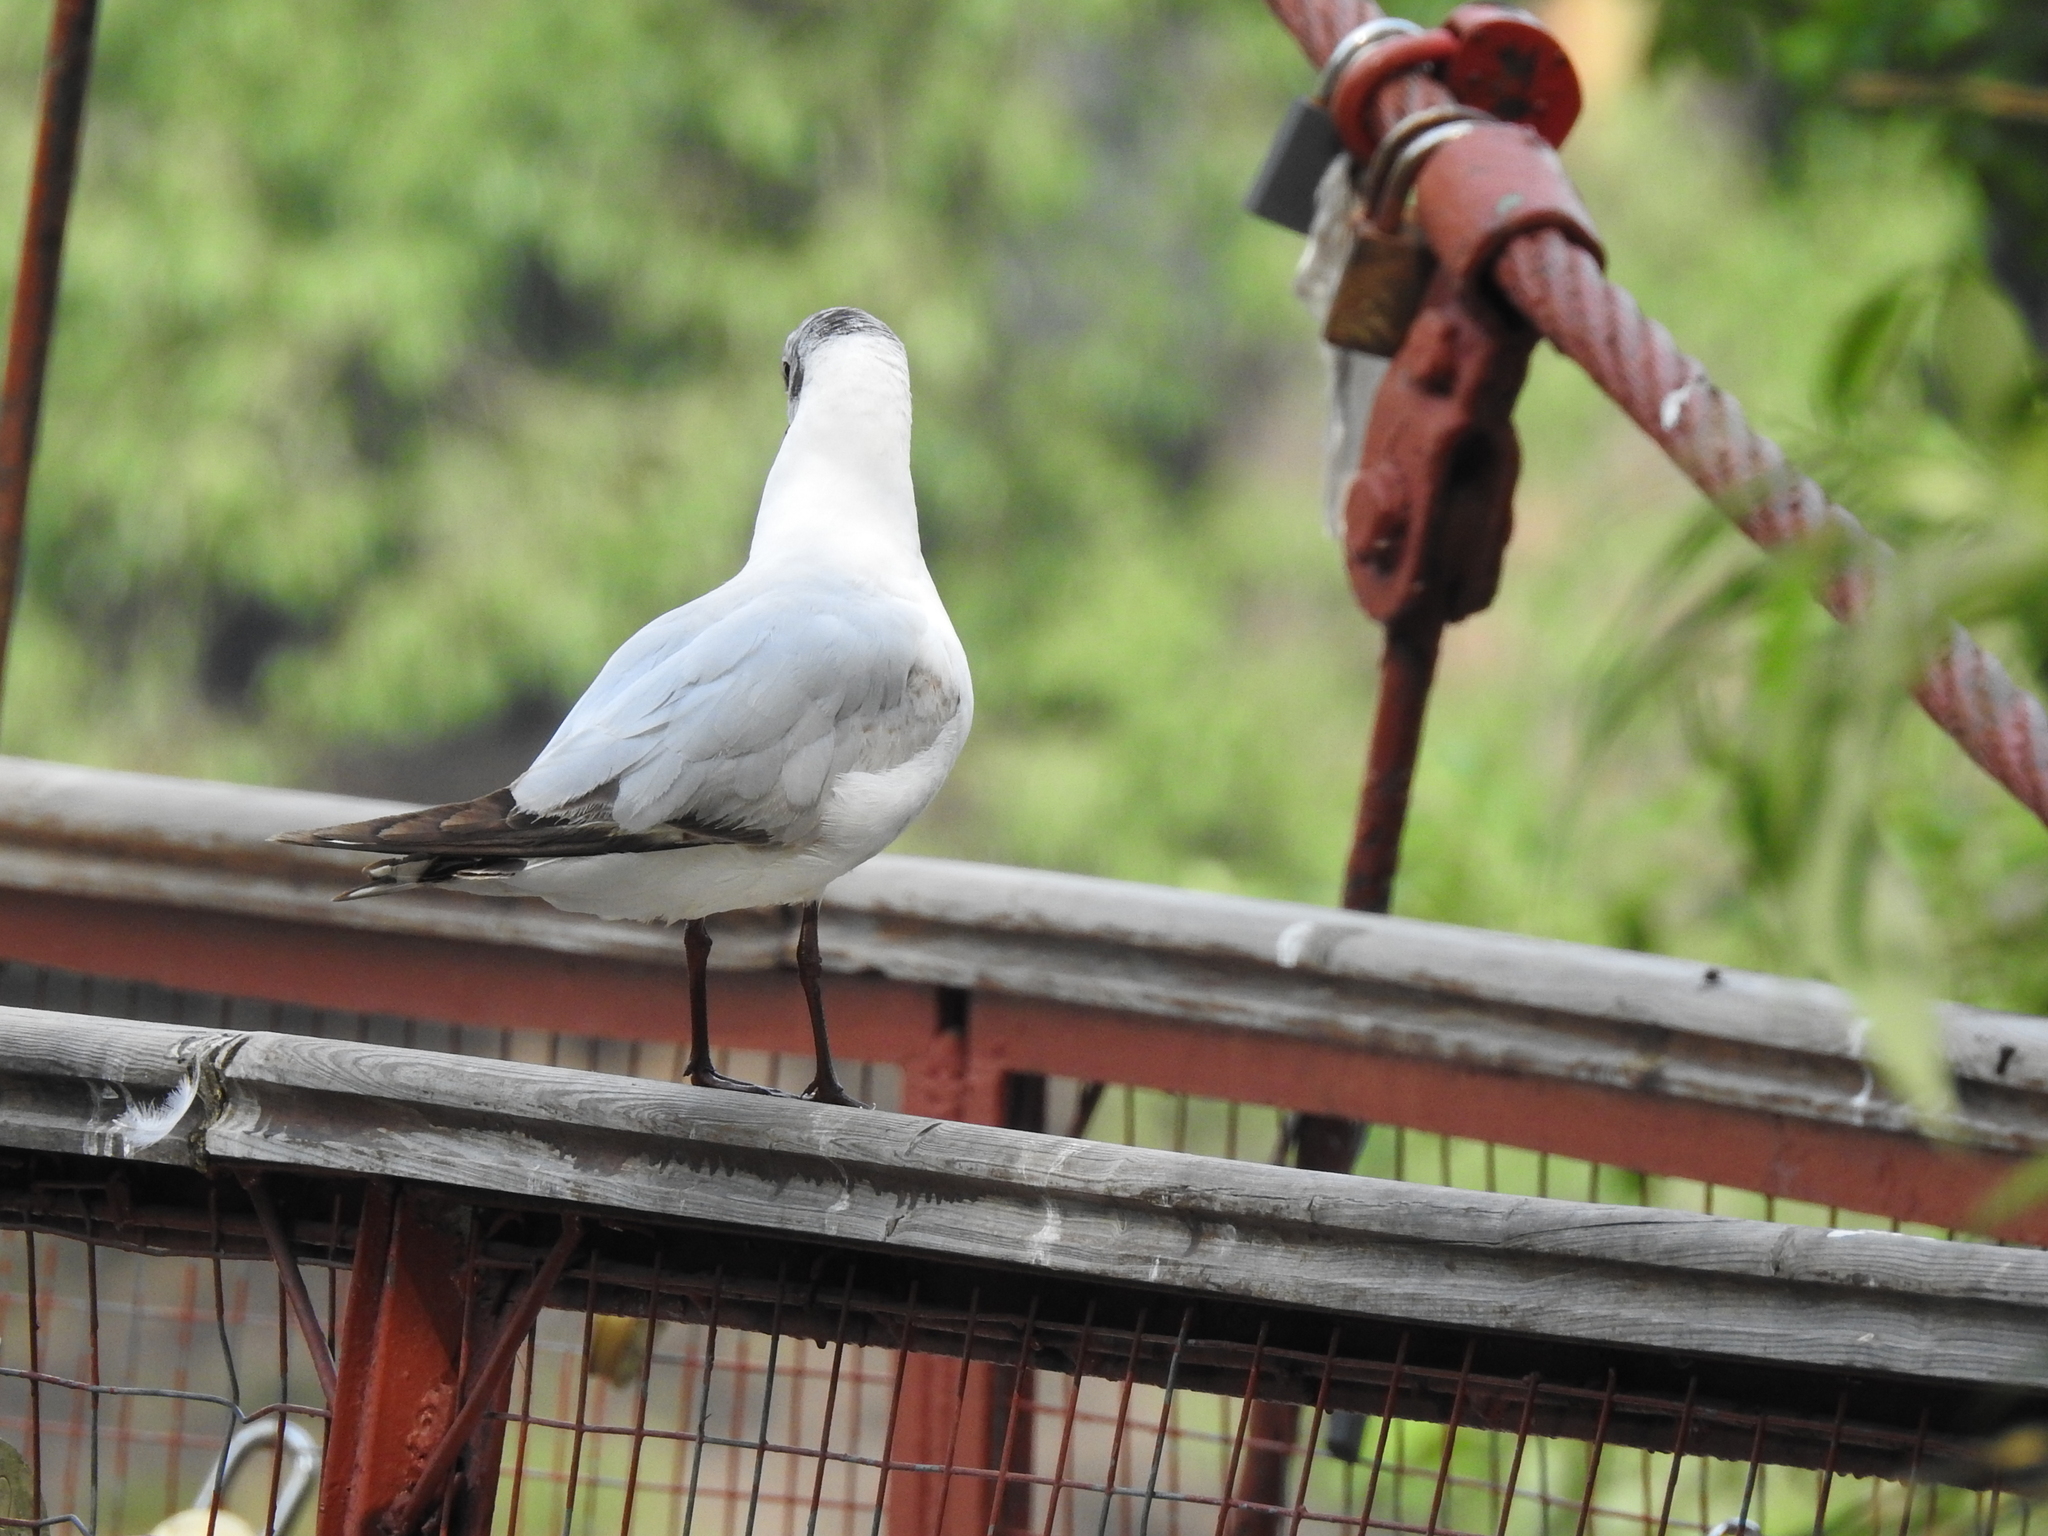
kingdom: Animalia
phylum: Chordata
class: Aves
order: Charadriiformes
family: Laridae
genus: Chroicocephalus
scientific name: Chroicocephalus ridibundus
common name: Black-headed gull
